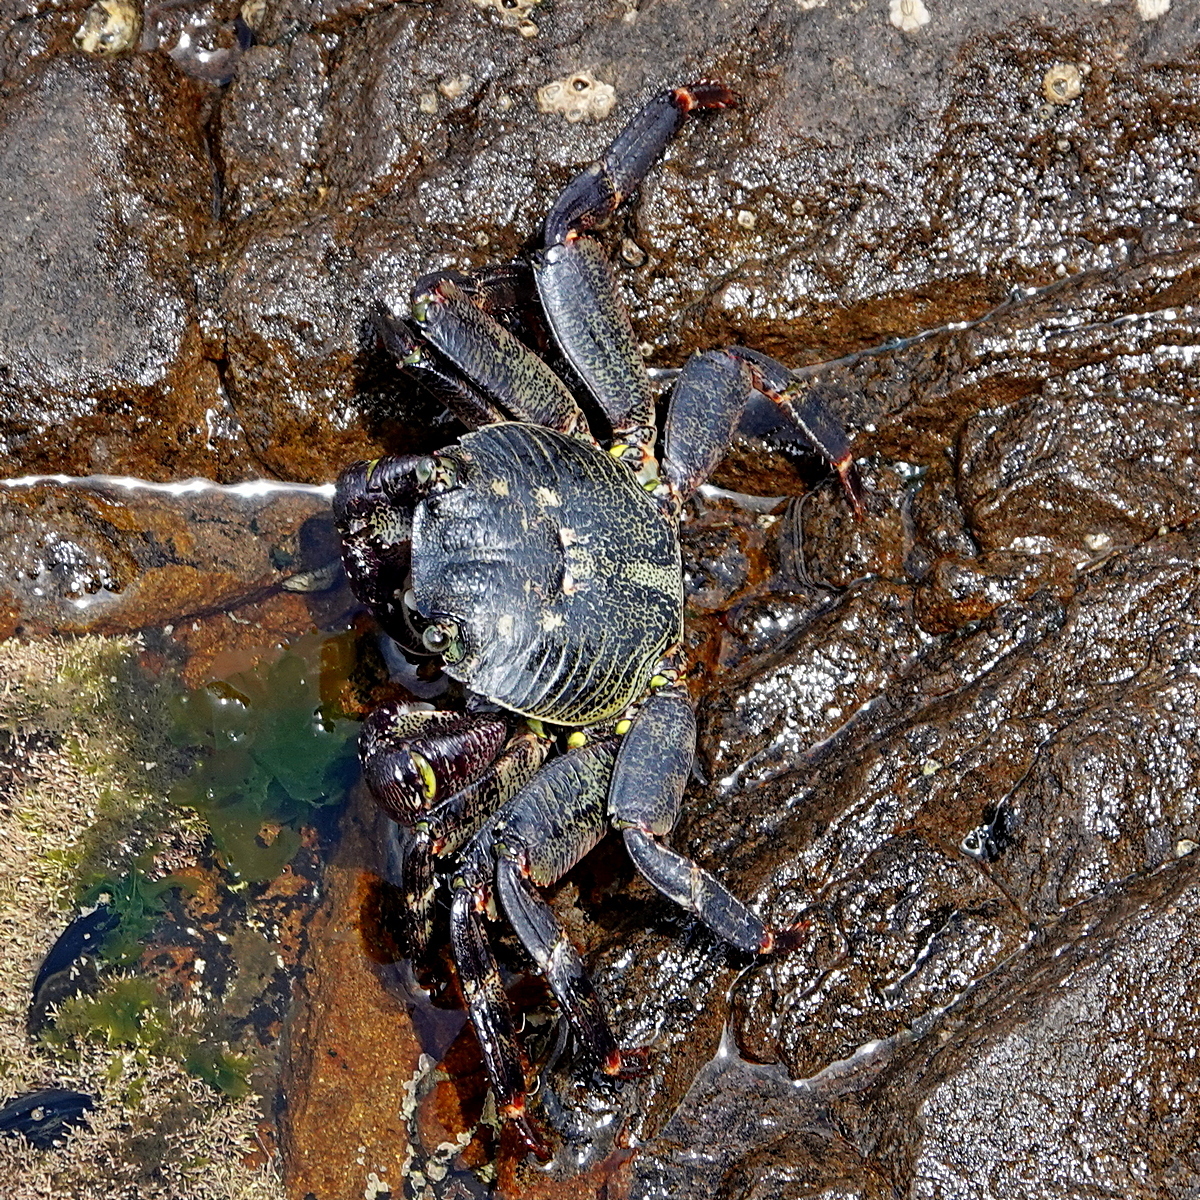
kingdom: Animalia
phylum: Arthropoda
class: Malacostraca
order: Decapoda
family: Grapsidae
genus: Leptograpsus
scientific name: Leptograpsus variegatus
